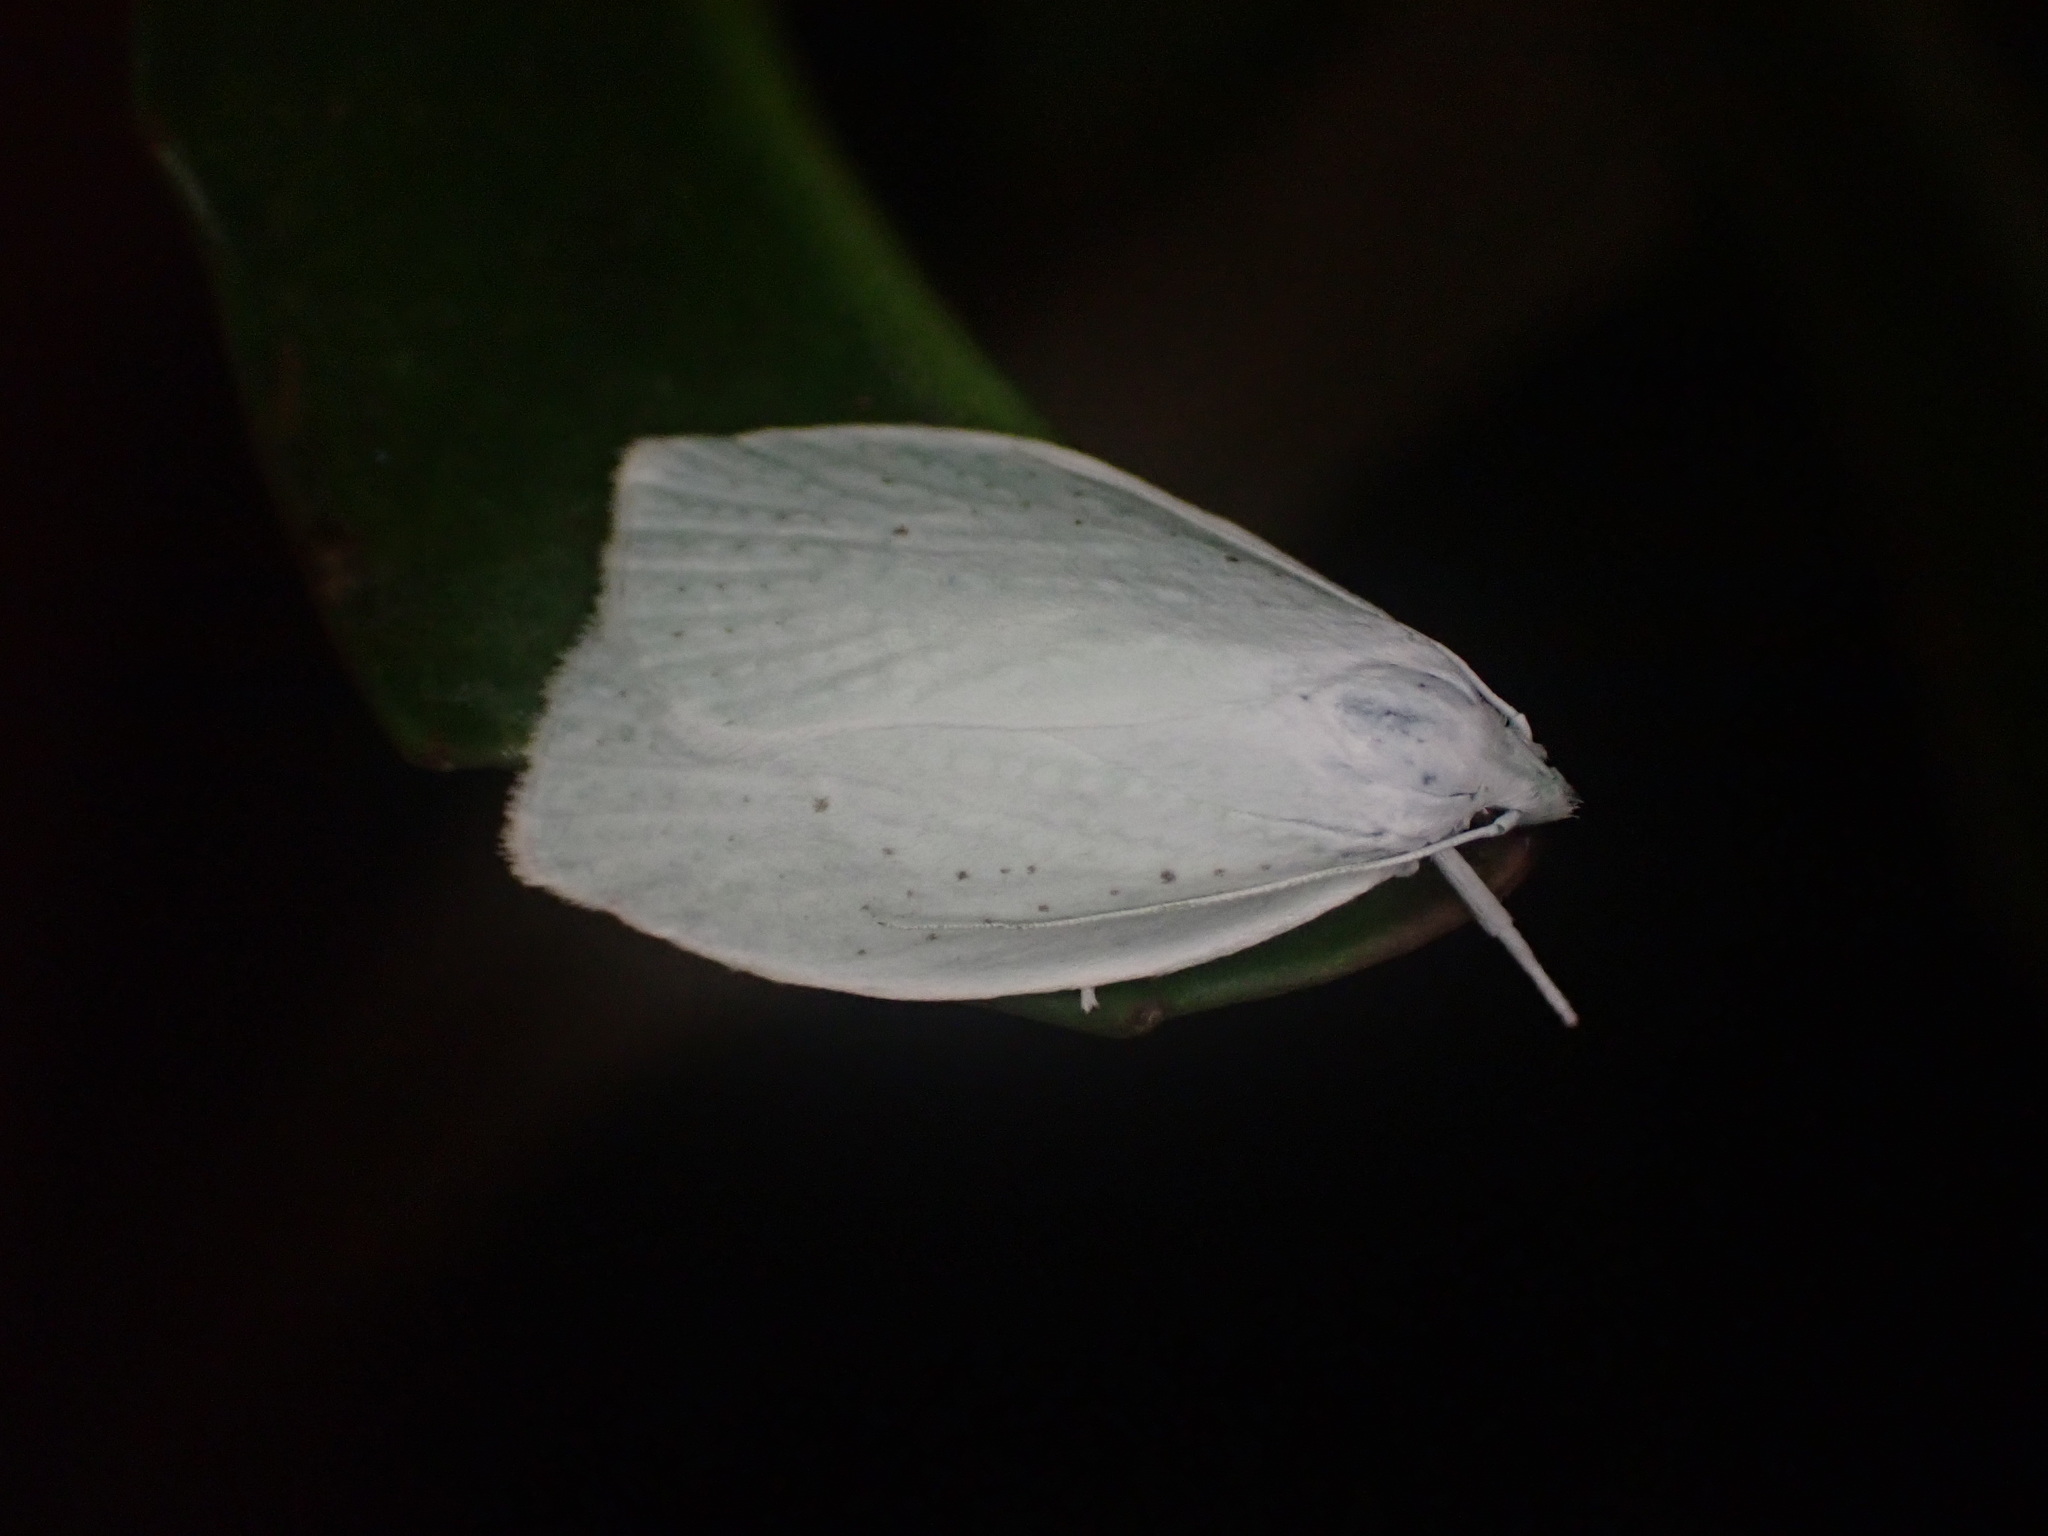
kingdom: Animalia
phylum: Arthropoda
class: Insecta
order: Lepidoptera
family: Oecophoridae
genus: Nymphostola
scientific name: Nymphostola galactina
